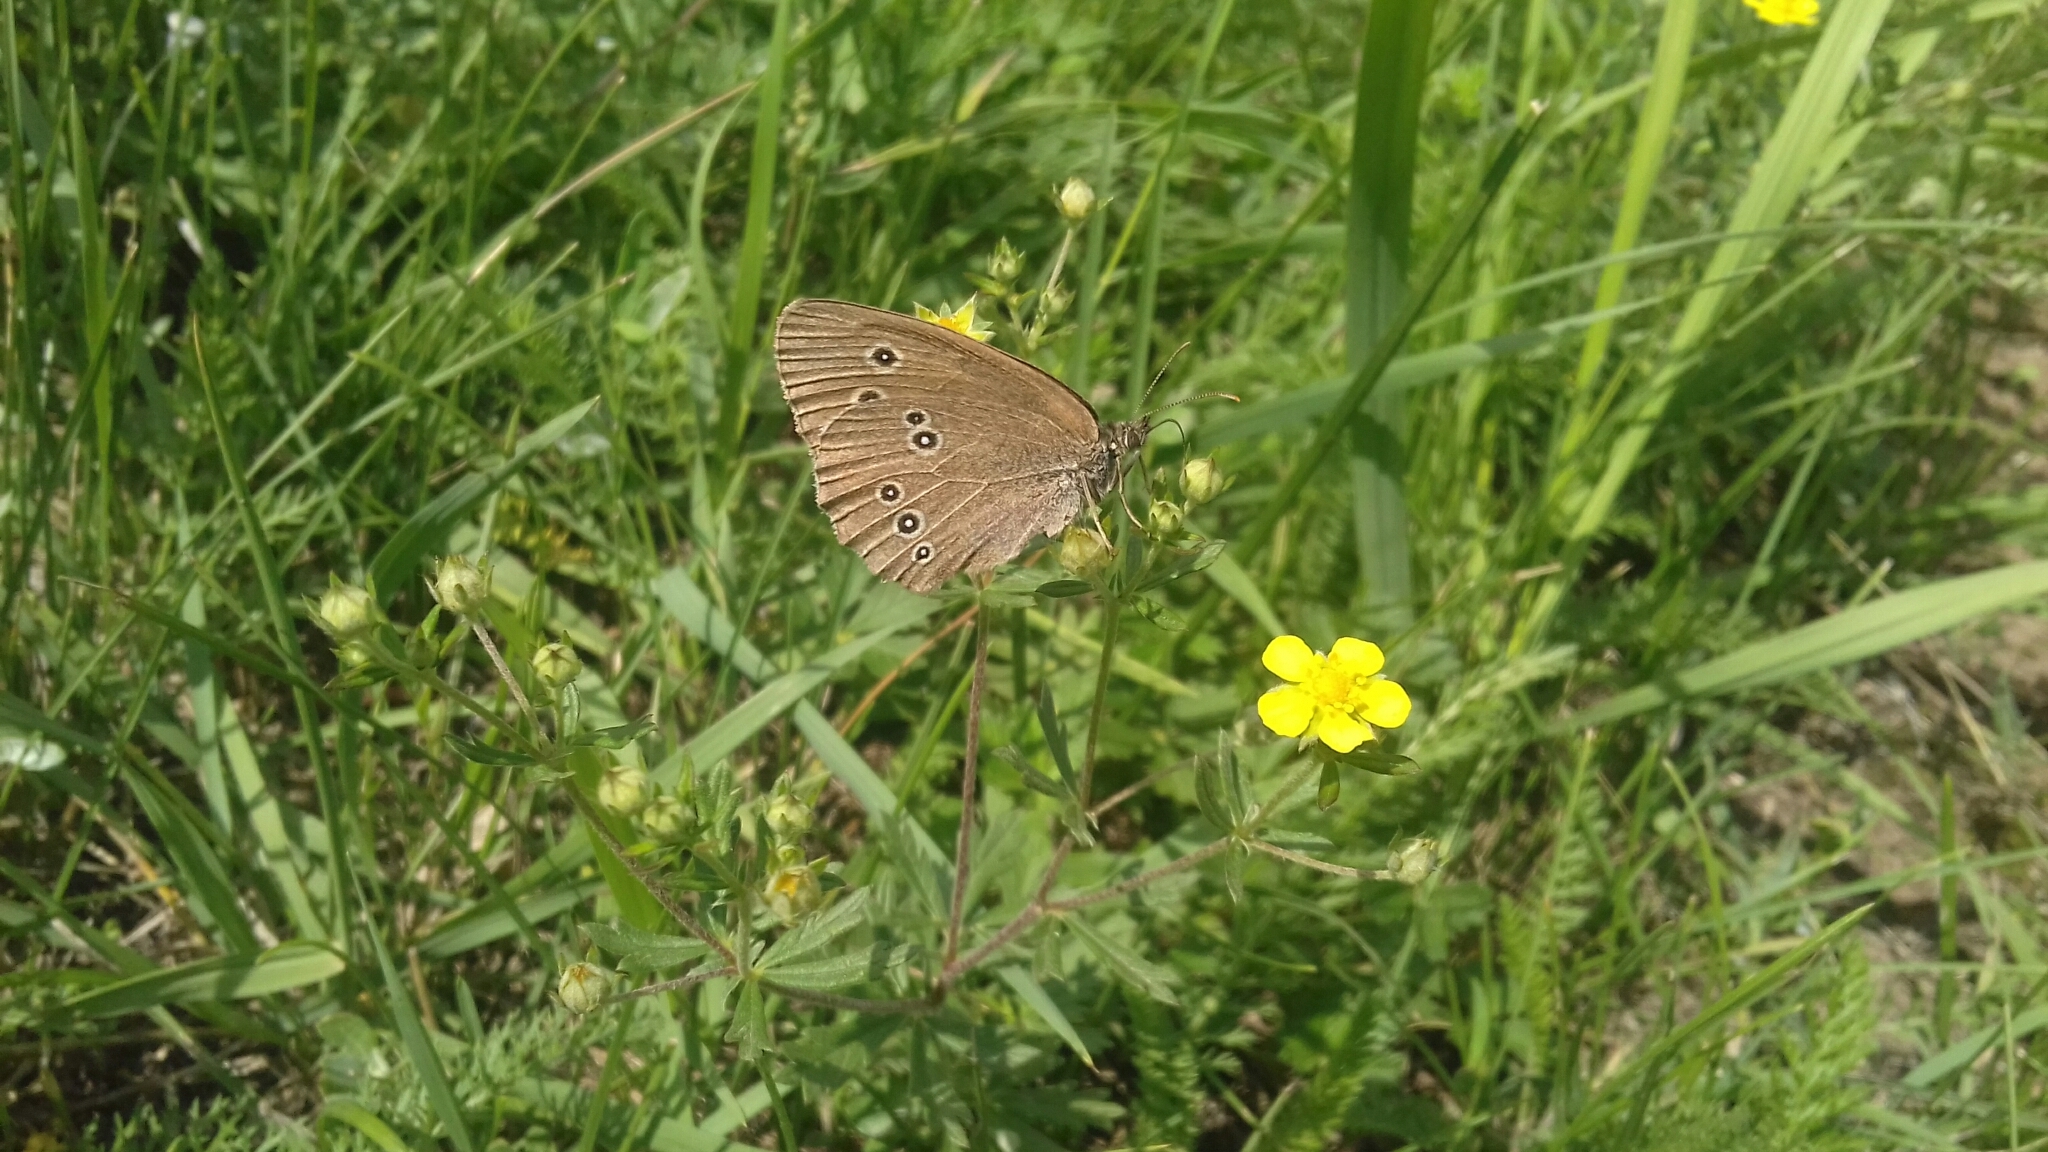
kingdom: Animalia
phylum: Arthropoda
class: Insecta
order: Lepidoptera
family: Nymphalidae
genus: Aphantopus
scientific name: Aphantopus hyperantus
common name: Ringlet
